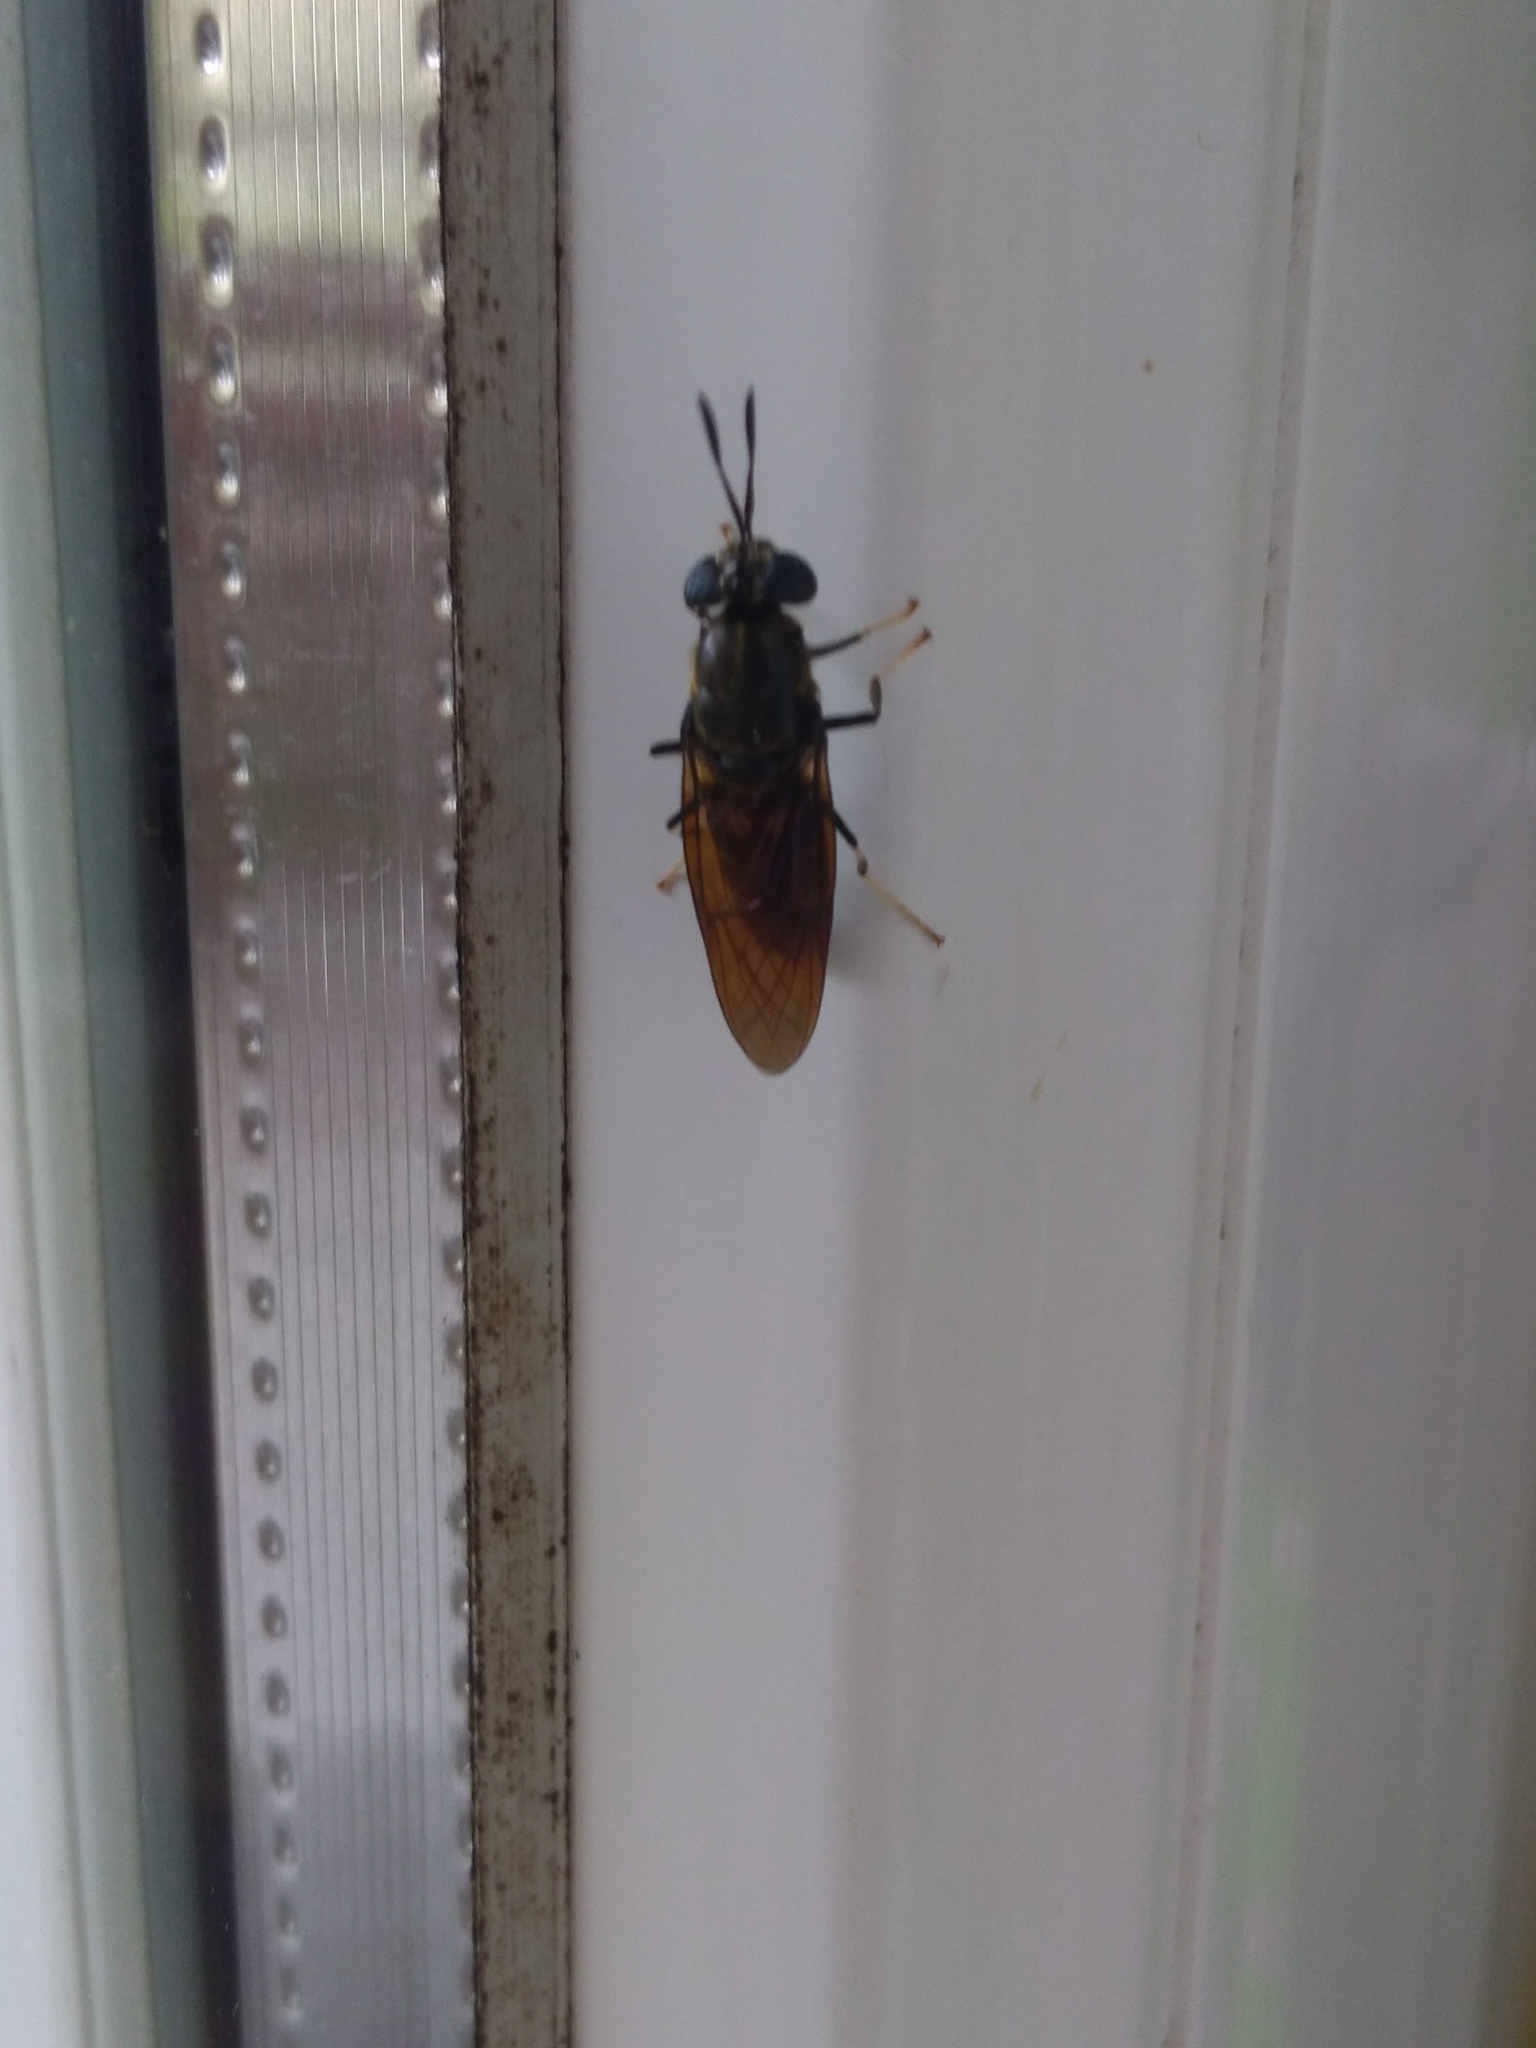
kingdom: Animalia
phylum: Arthropoda
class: Insecta
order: Diptera
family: Stratiomyidae
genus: Hermetia
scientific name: Hermetia illucens
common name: Black soldier fly
